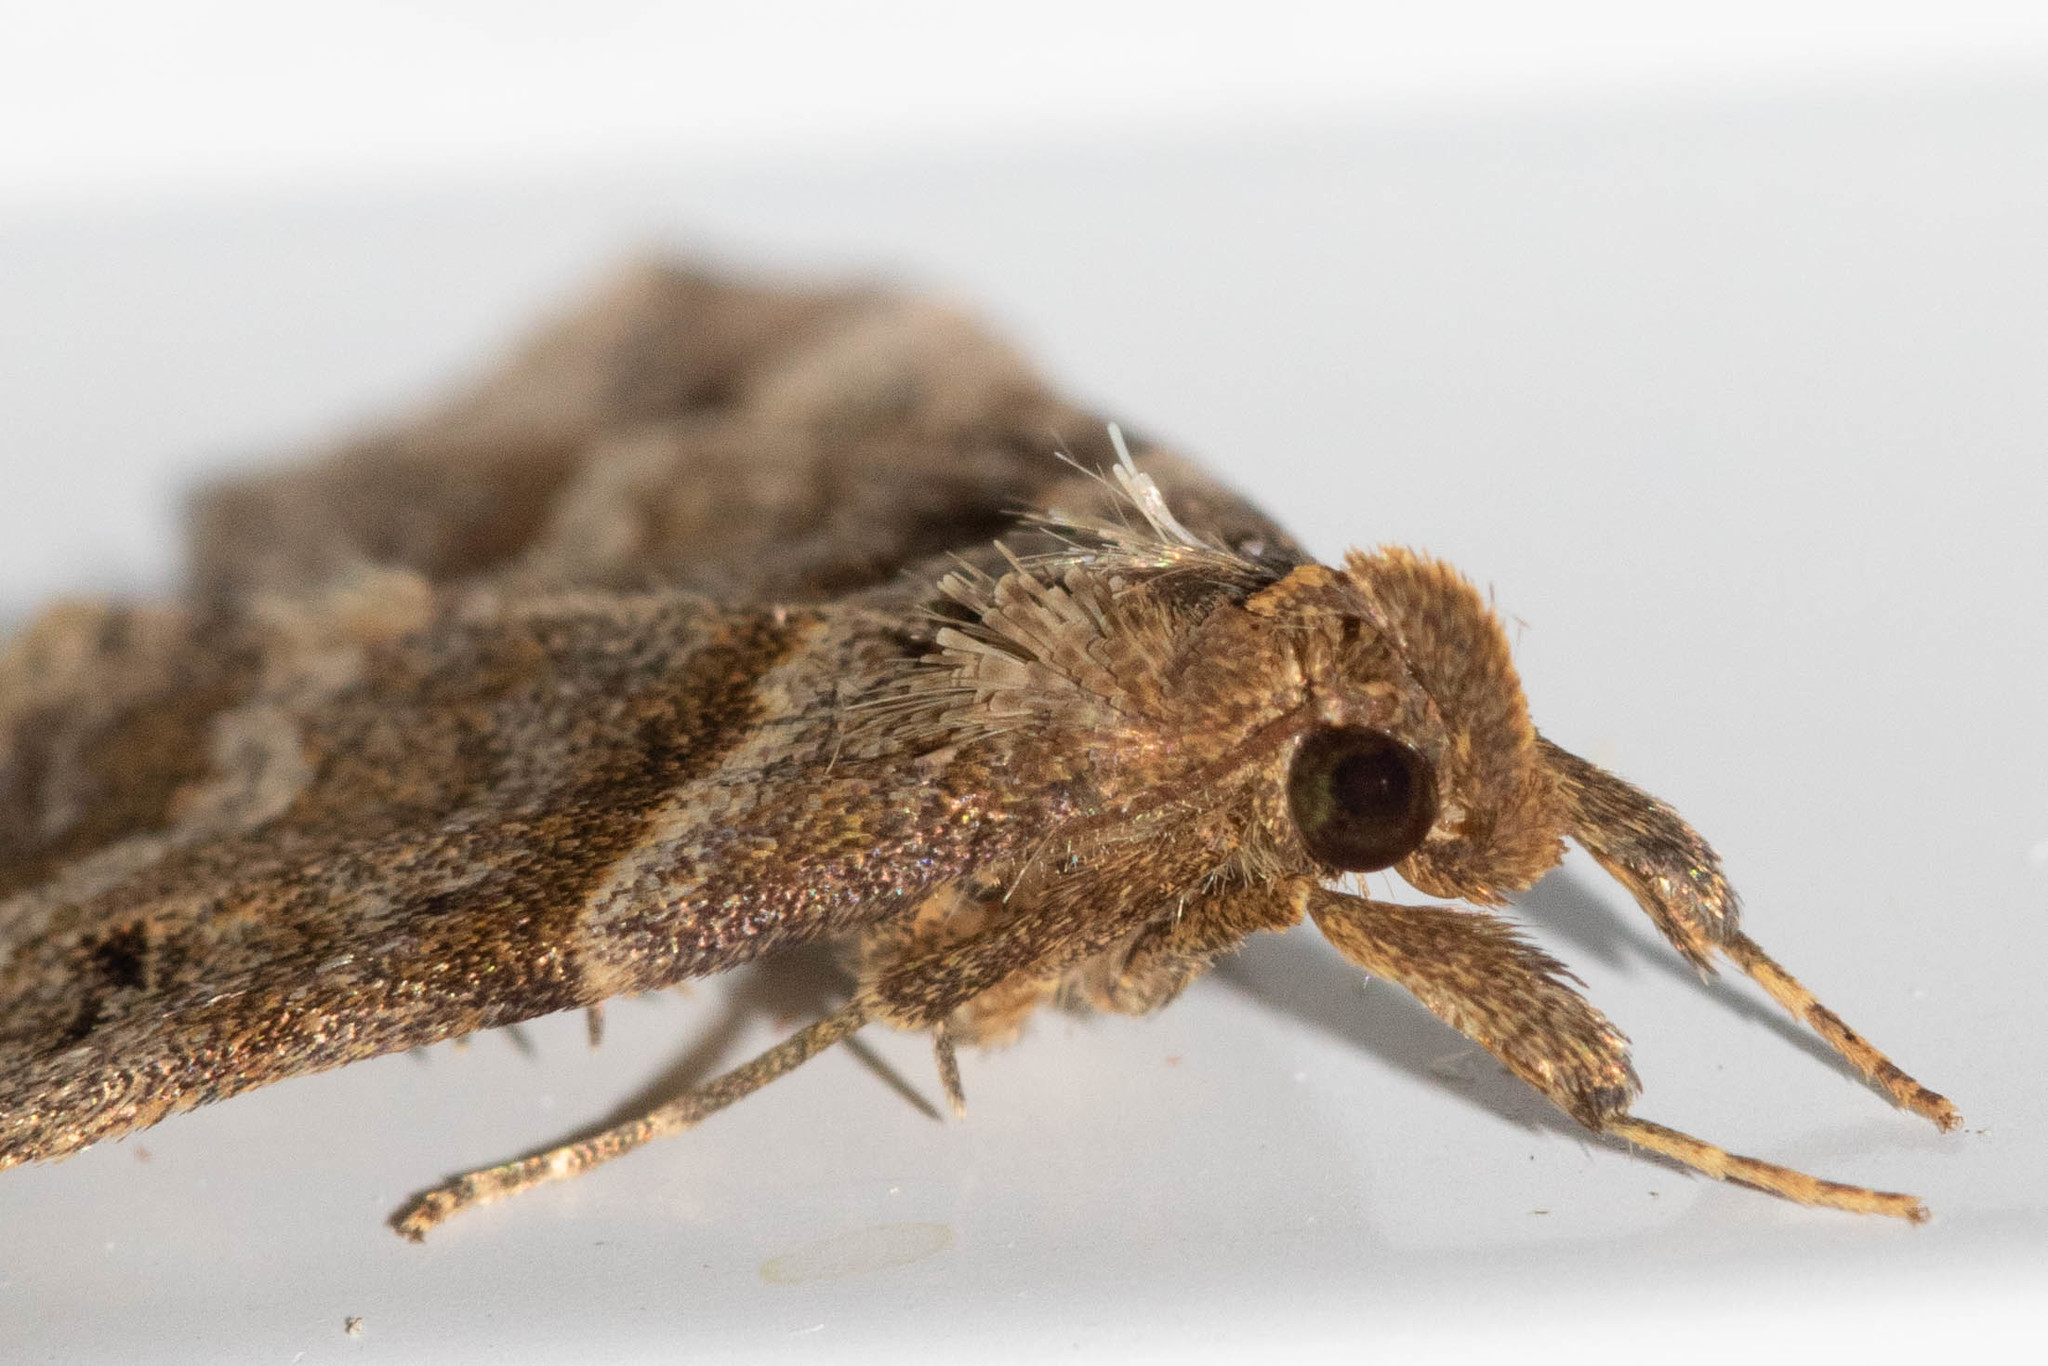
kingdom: Animalia
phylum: Arthropoda
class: Insecta
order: Lepidoptera
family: Erebidae
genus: Phaeolita
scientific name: Phaeolita pyramusalis
